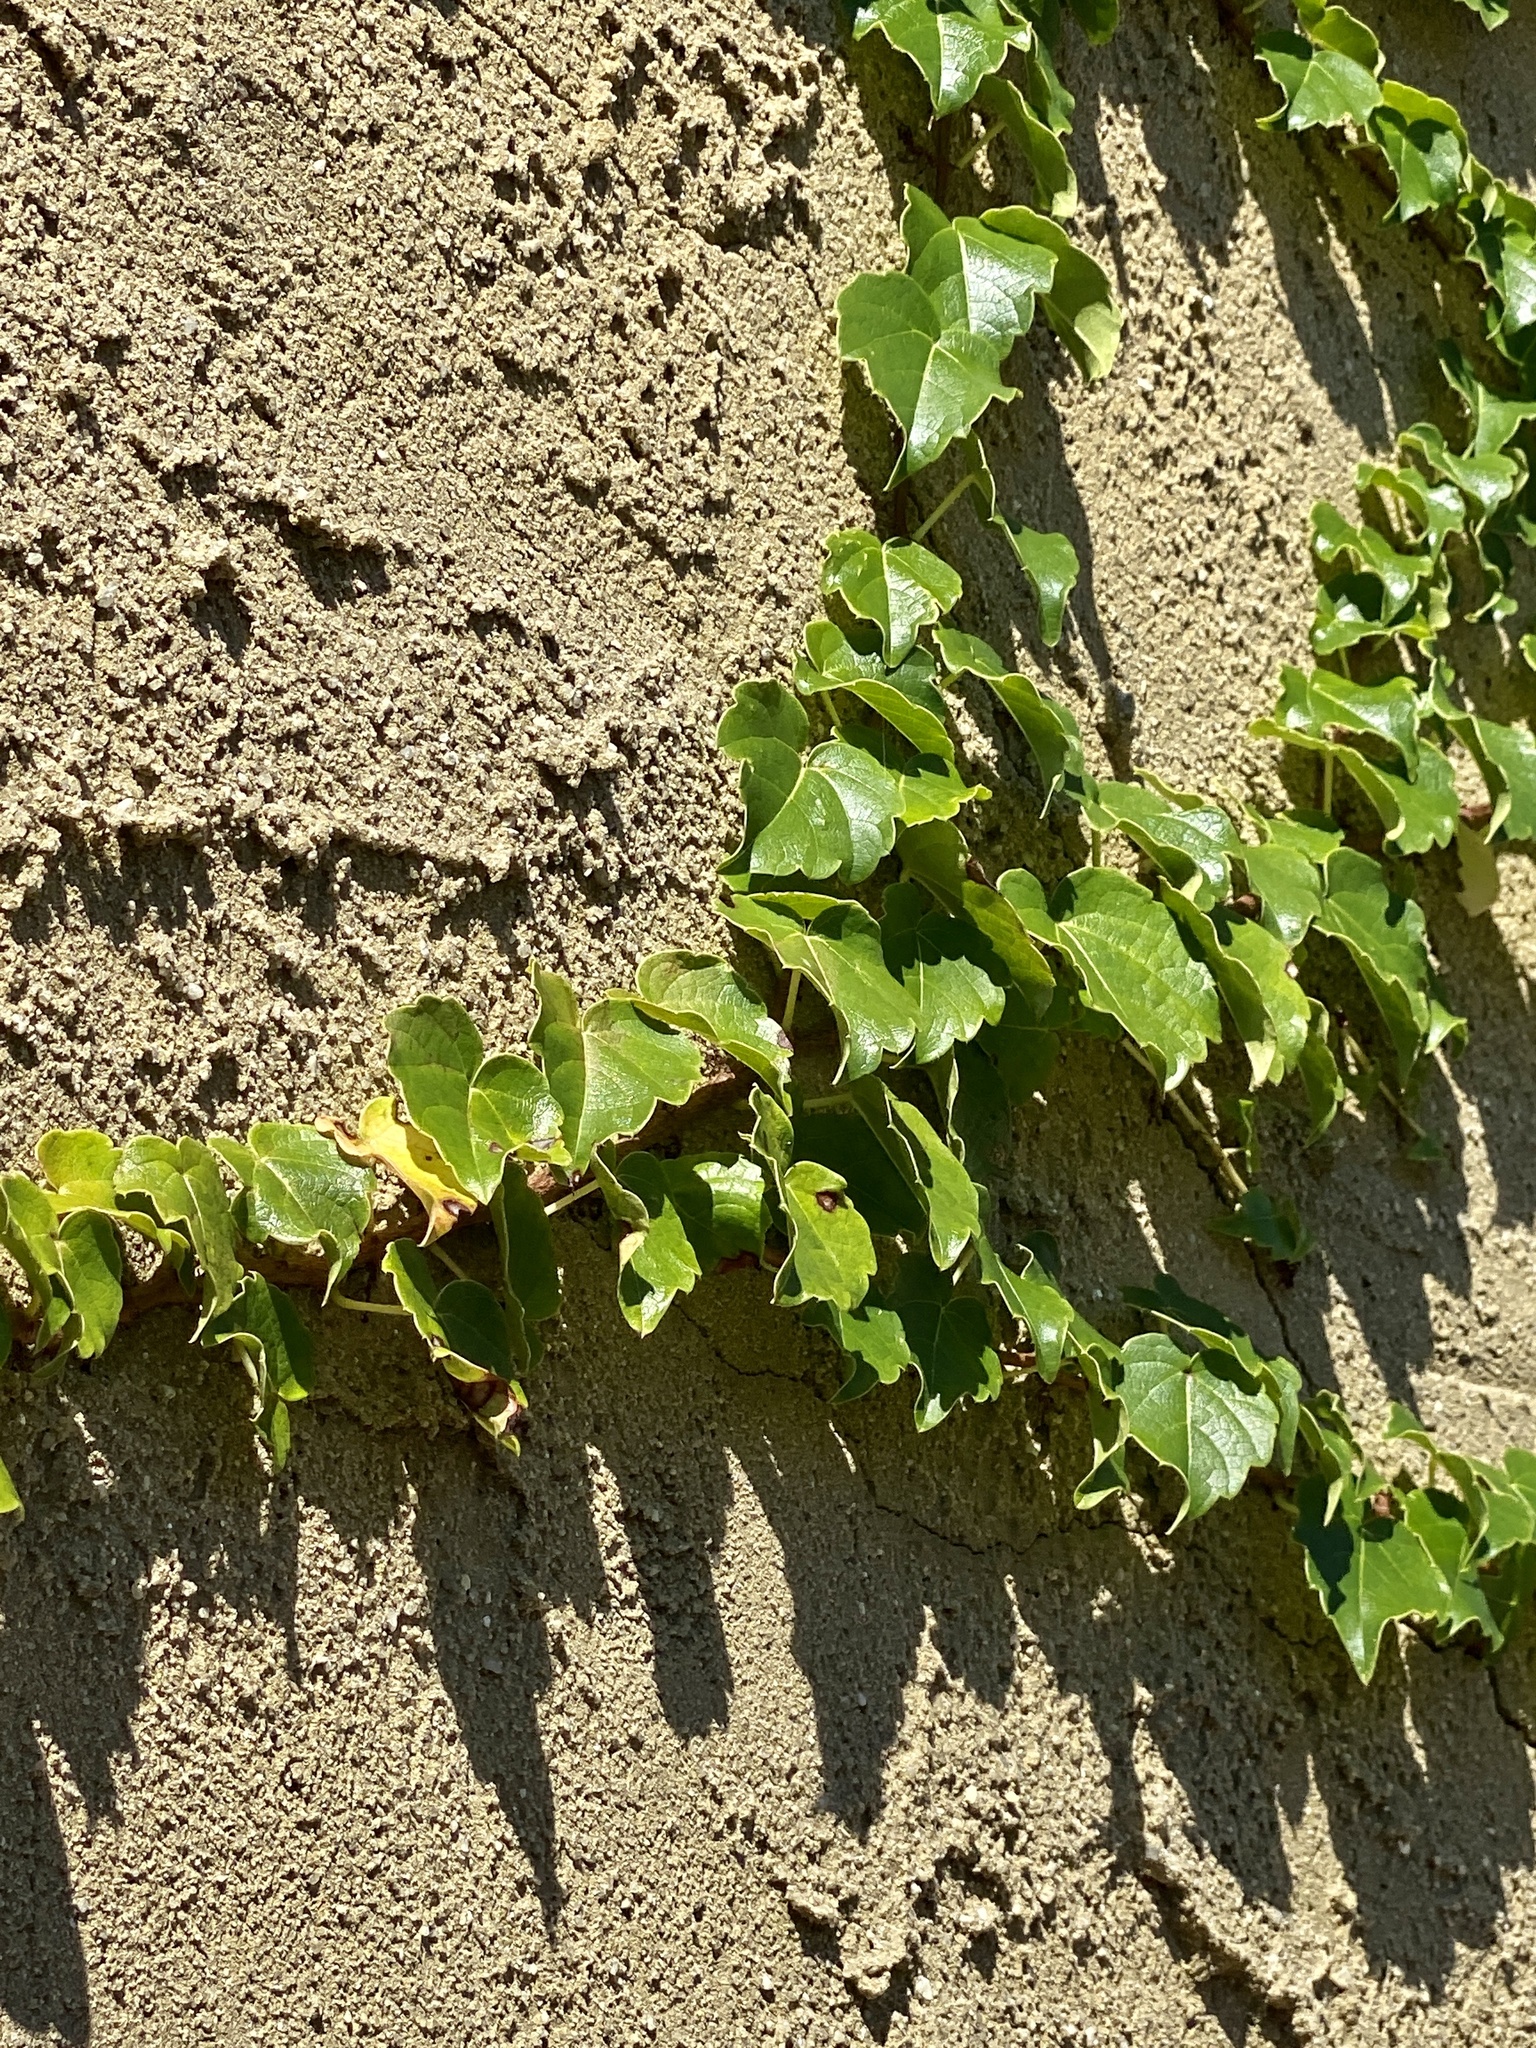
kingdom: Plantae
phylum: Tracheophyta
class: Magnoliopsida
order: Vitales
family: Vitaceae
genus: Parthenocissus
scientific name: Parthenocissus tricuspidata
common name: Boston ivy
